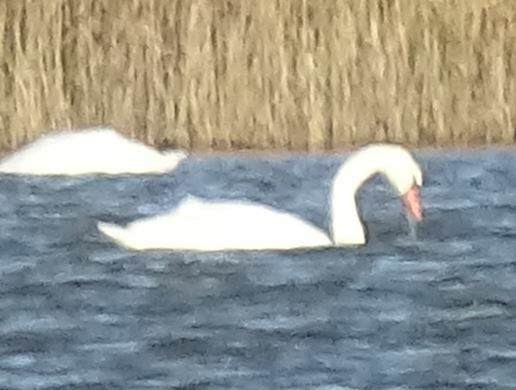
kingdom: Animalia
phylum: Chordata
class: Aves
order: Anseriformes
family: Anatidae
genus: Cygnus
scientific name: Cygnus olor
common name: Mute swan
